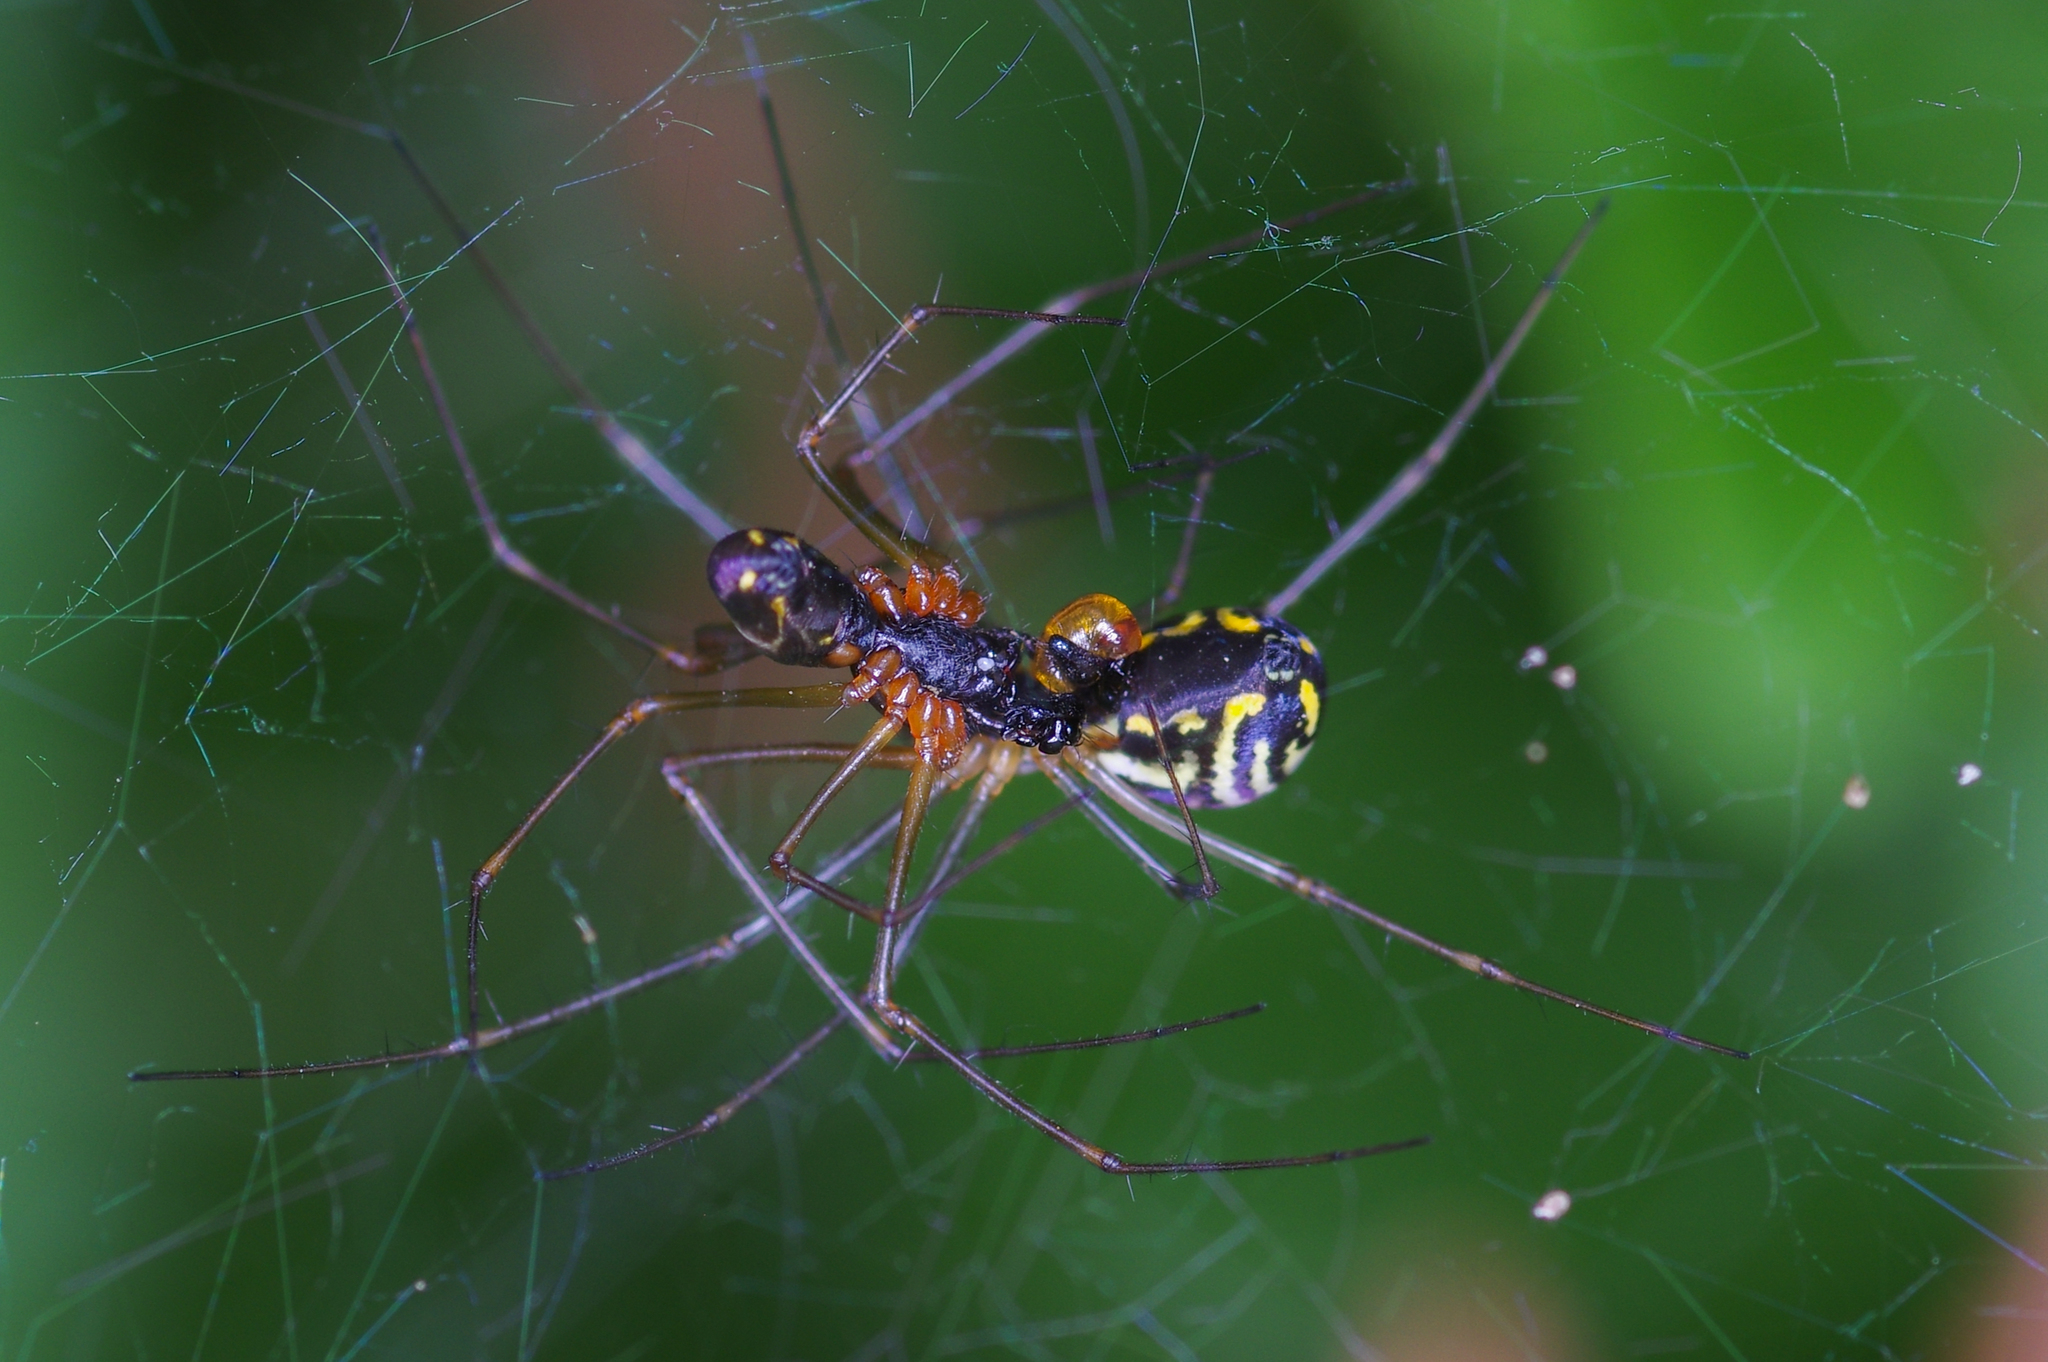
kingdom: Animalia
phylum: Arthropoda
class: Arachnida
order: Araneae
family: Linyphiidae
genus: Neriene
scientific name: Neriene radiata
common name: Filmy dome spider
